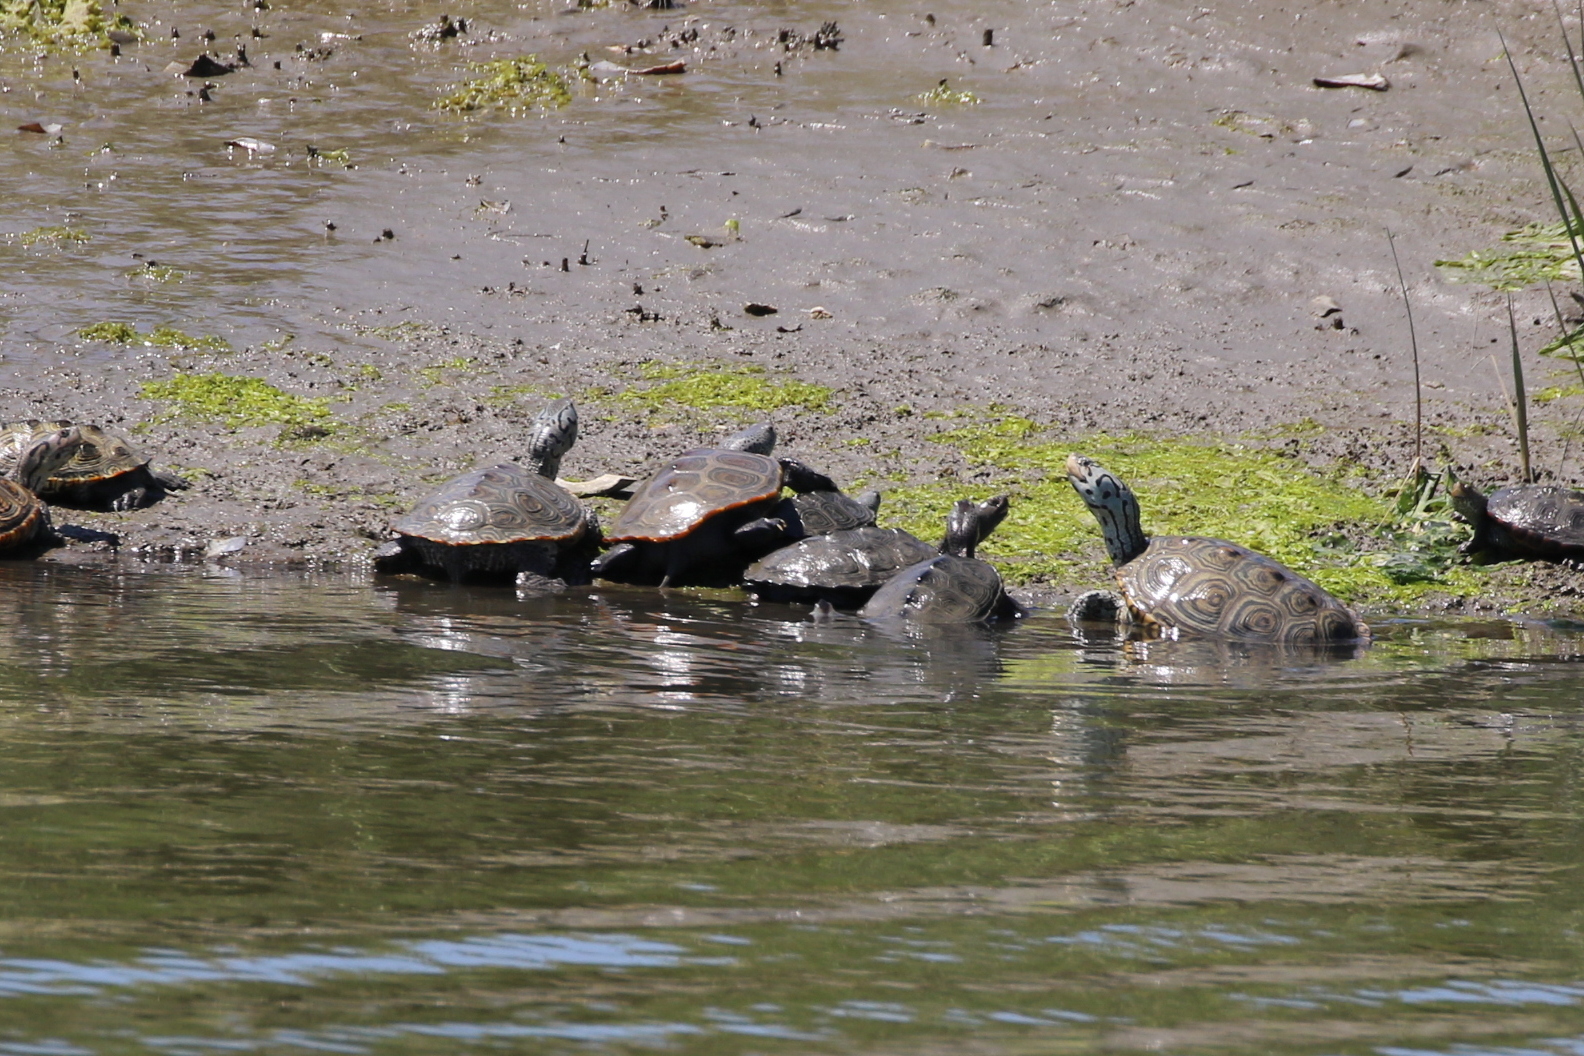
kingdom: Animalia
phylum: Chordata
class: Testudines
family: Emydidae
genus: Malaclemys
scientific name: Malaclemys terrapin
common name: Diamondback terrapin
